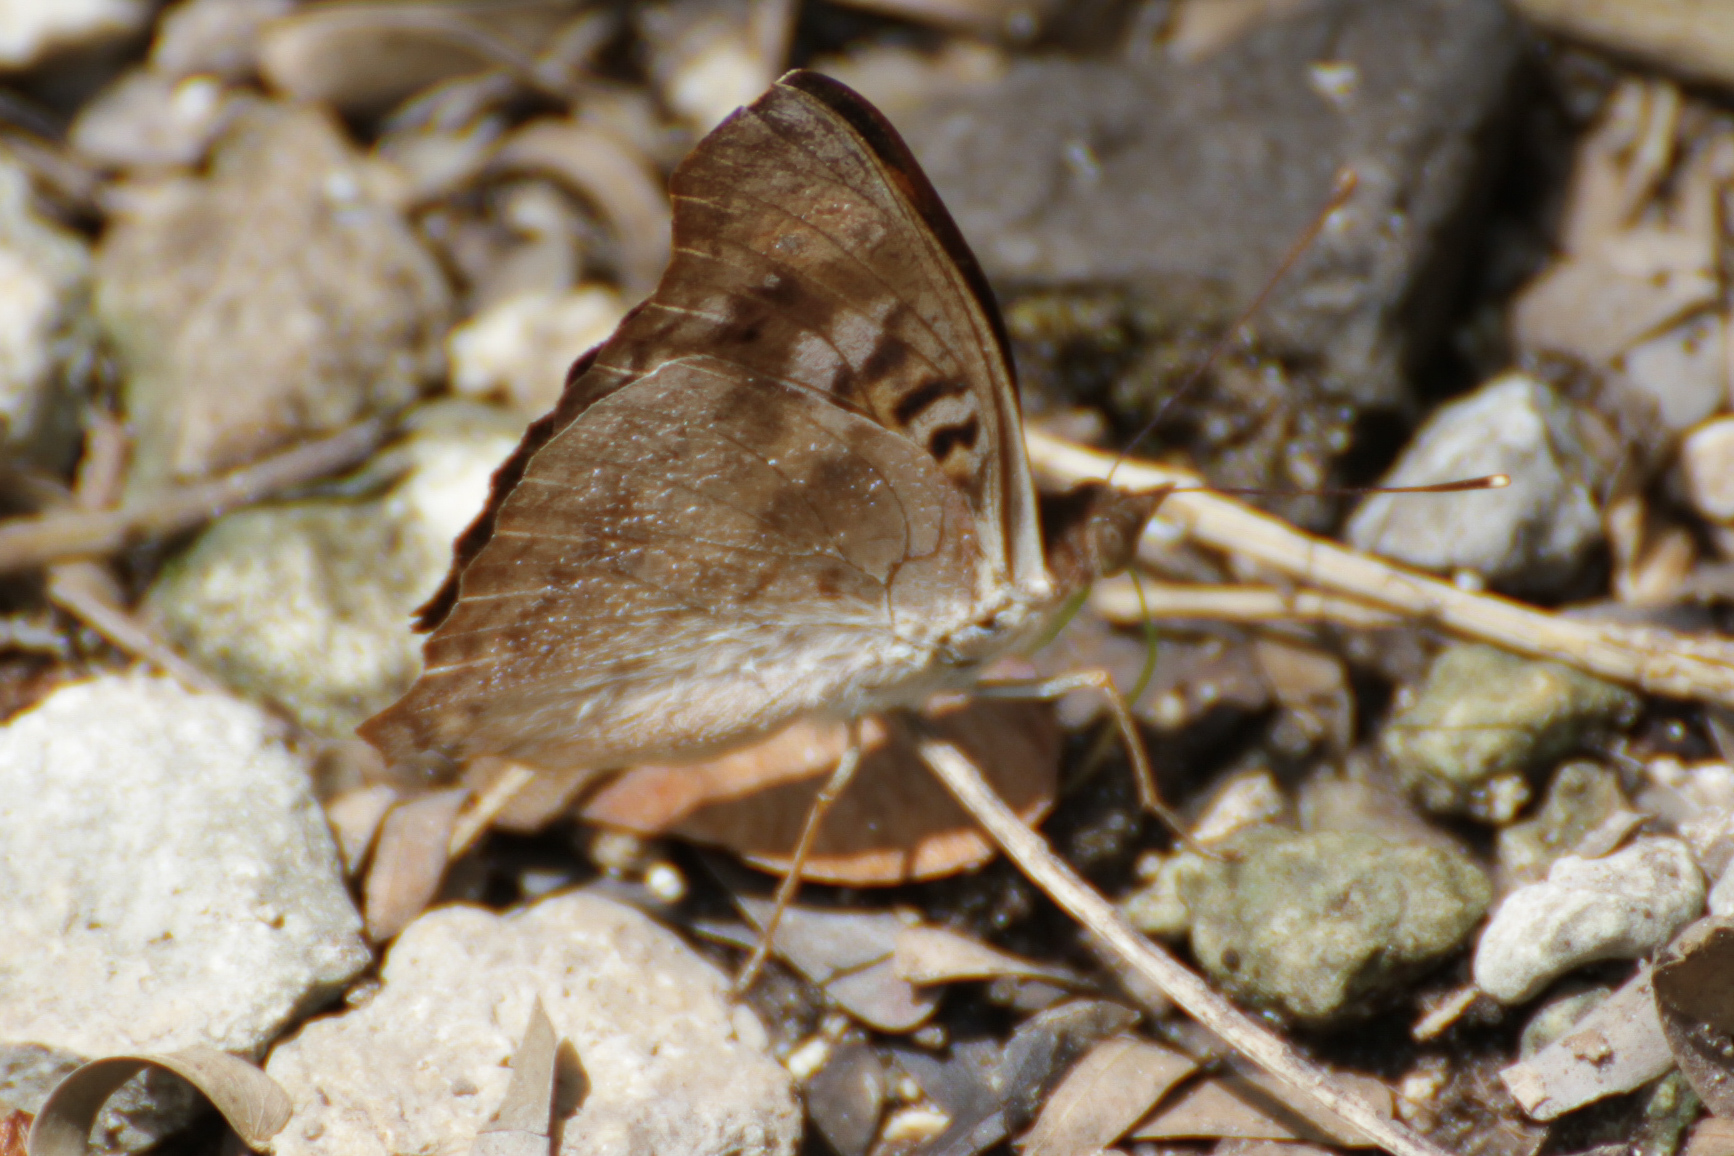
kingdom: Animalia
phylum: Arthropoda
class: Insecta
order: Lepidoptera
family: Nymphalidae
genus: Doxocopa
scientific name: Doxocopa pavonii
